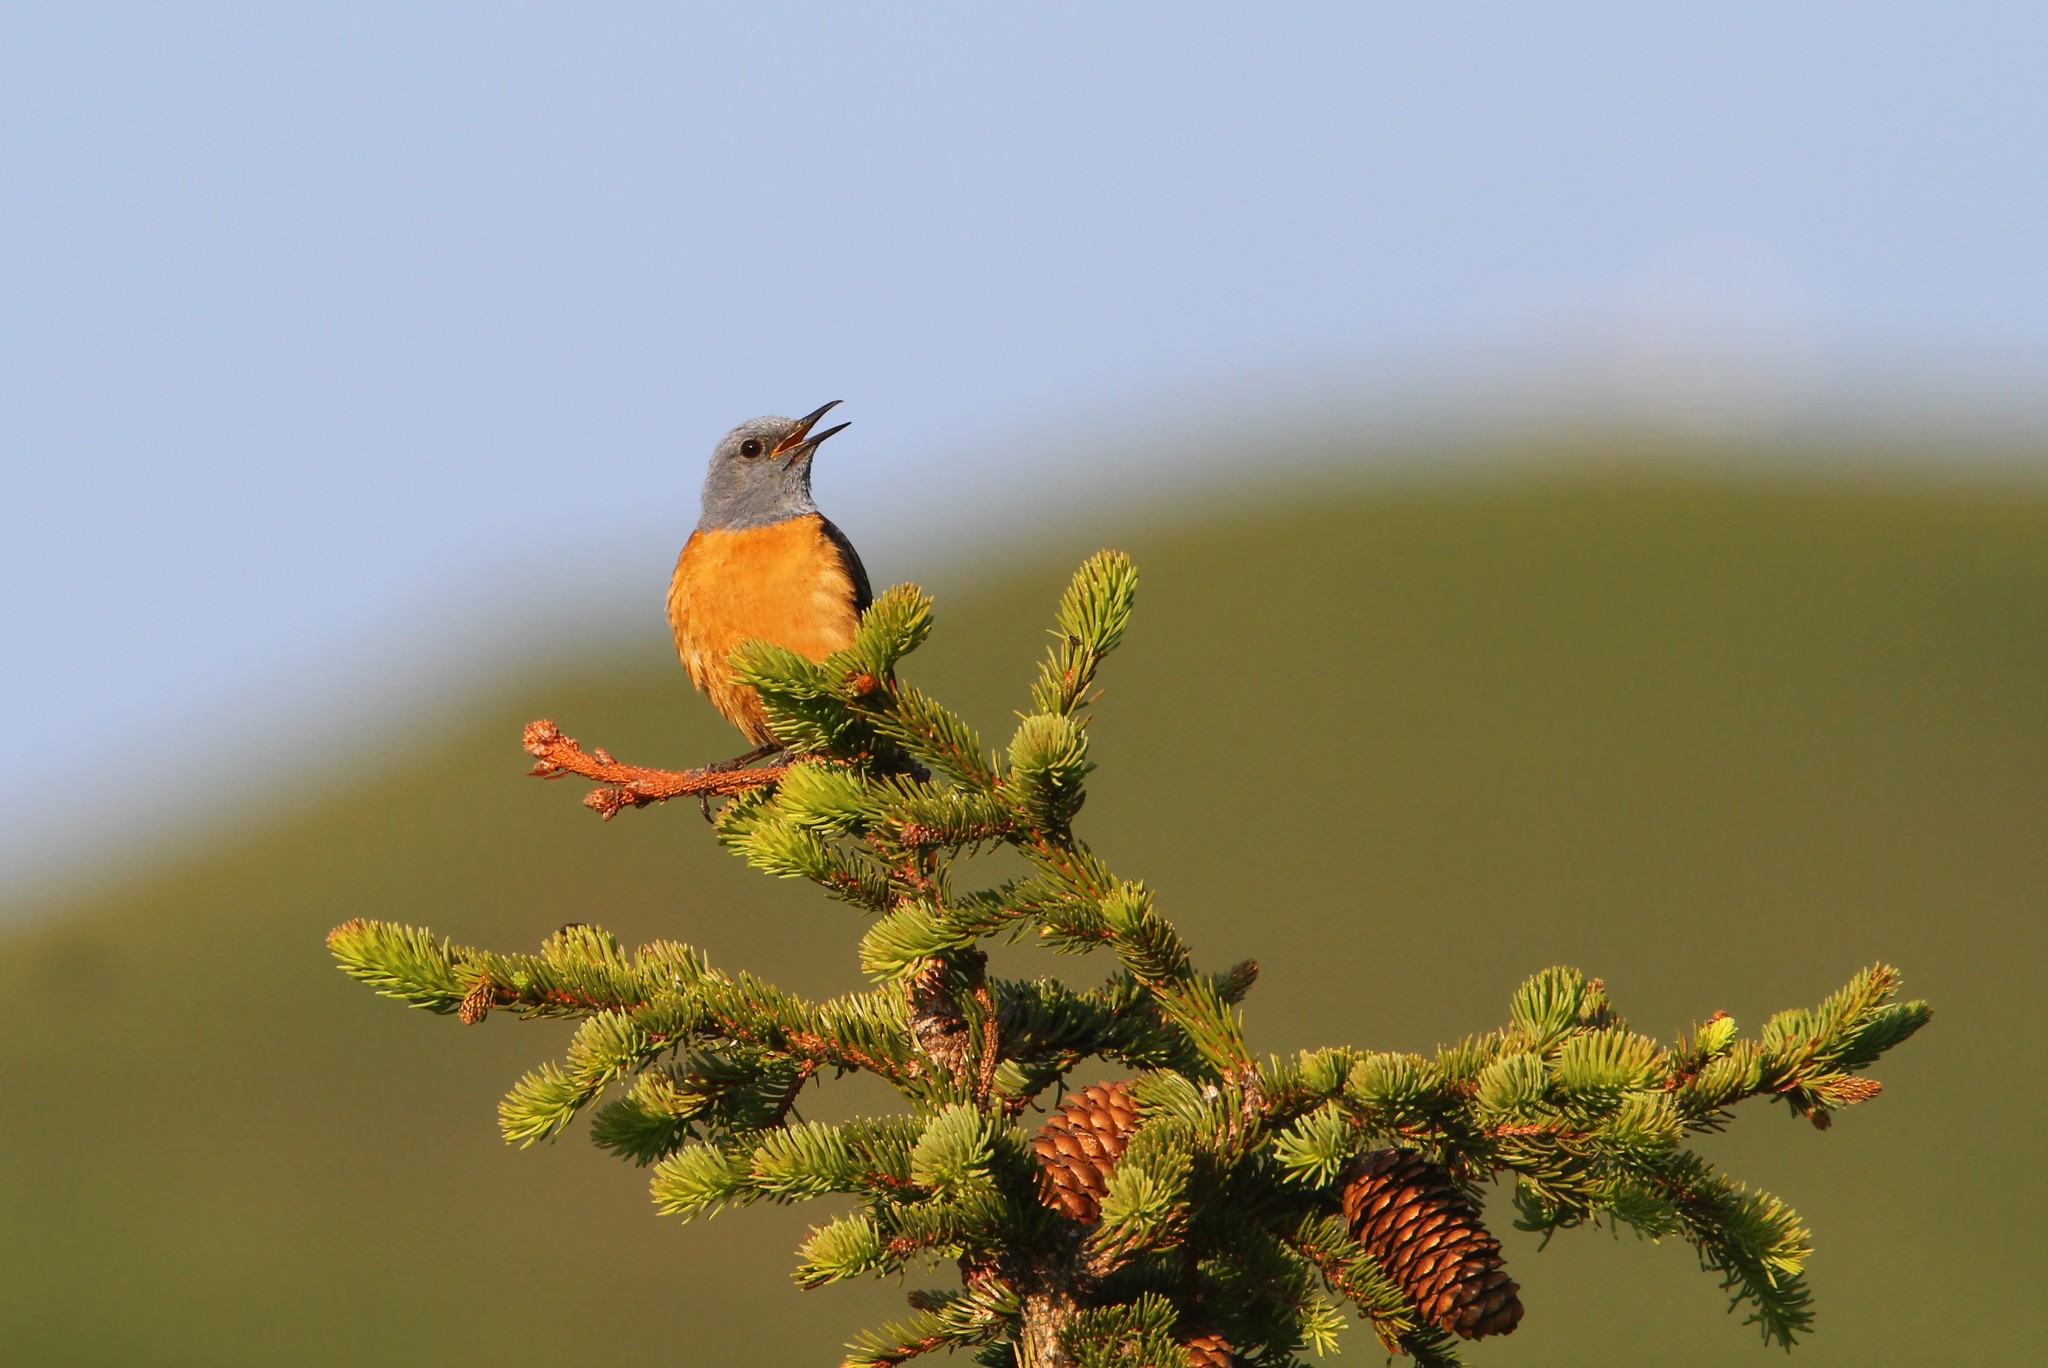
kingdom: Animalia
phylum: Chordata
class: Aves
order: Passeriformes
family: Muscicapidae
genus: Monticola
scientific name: Monticola saxatilis
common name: Rufous-tailed rock thrush
